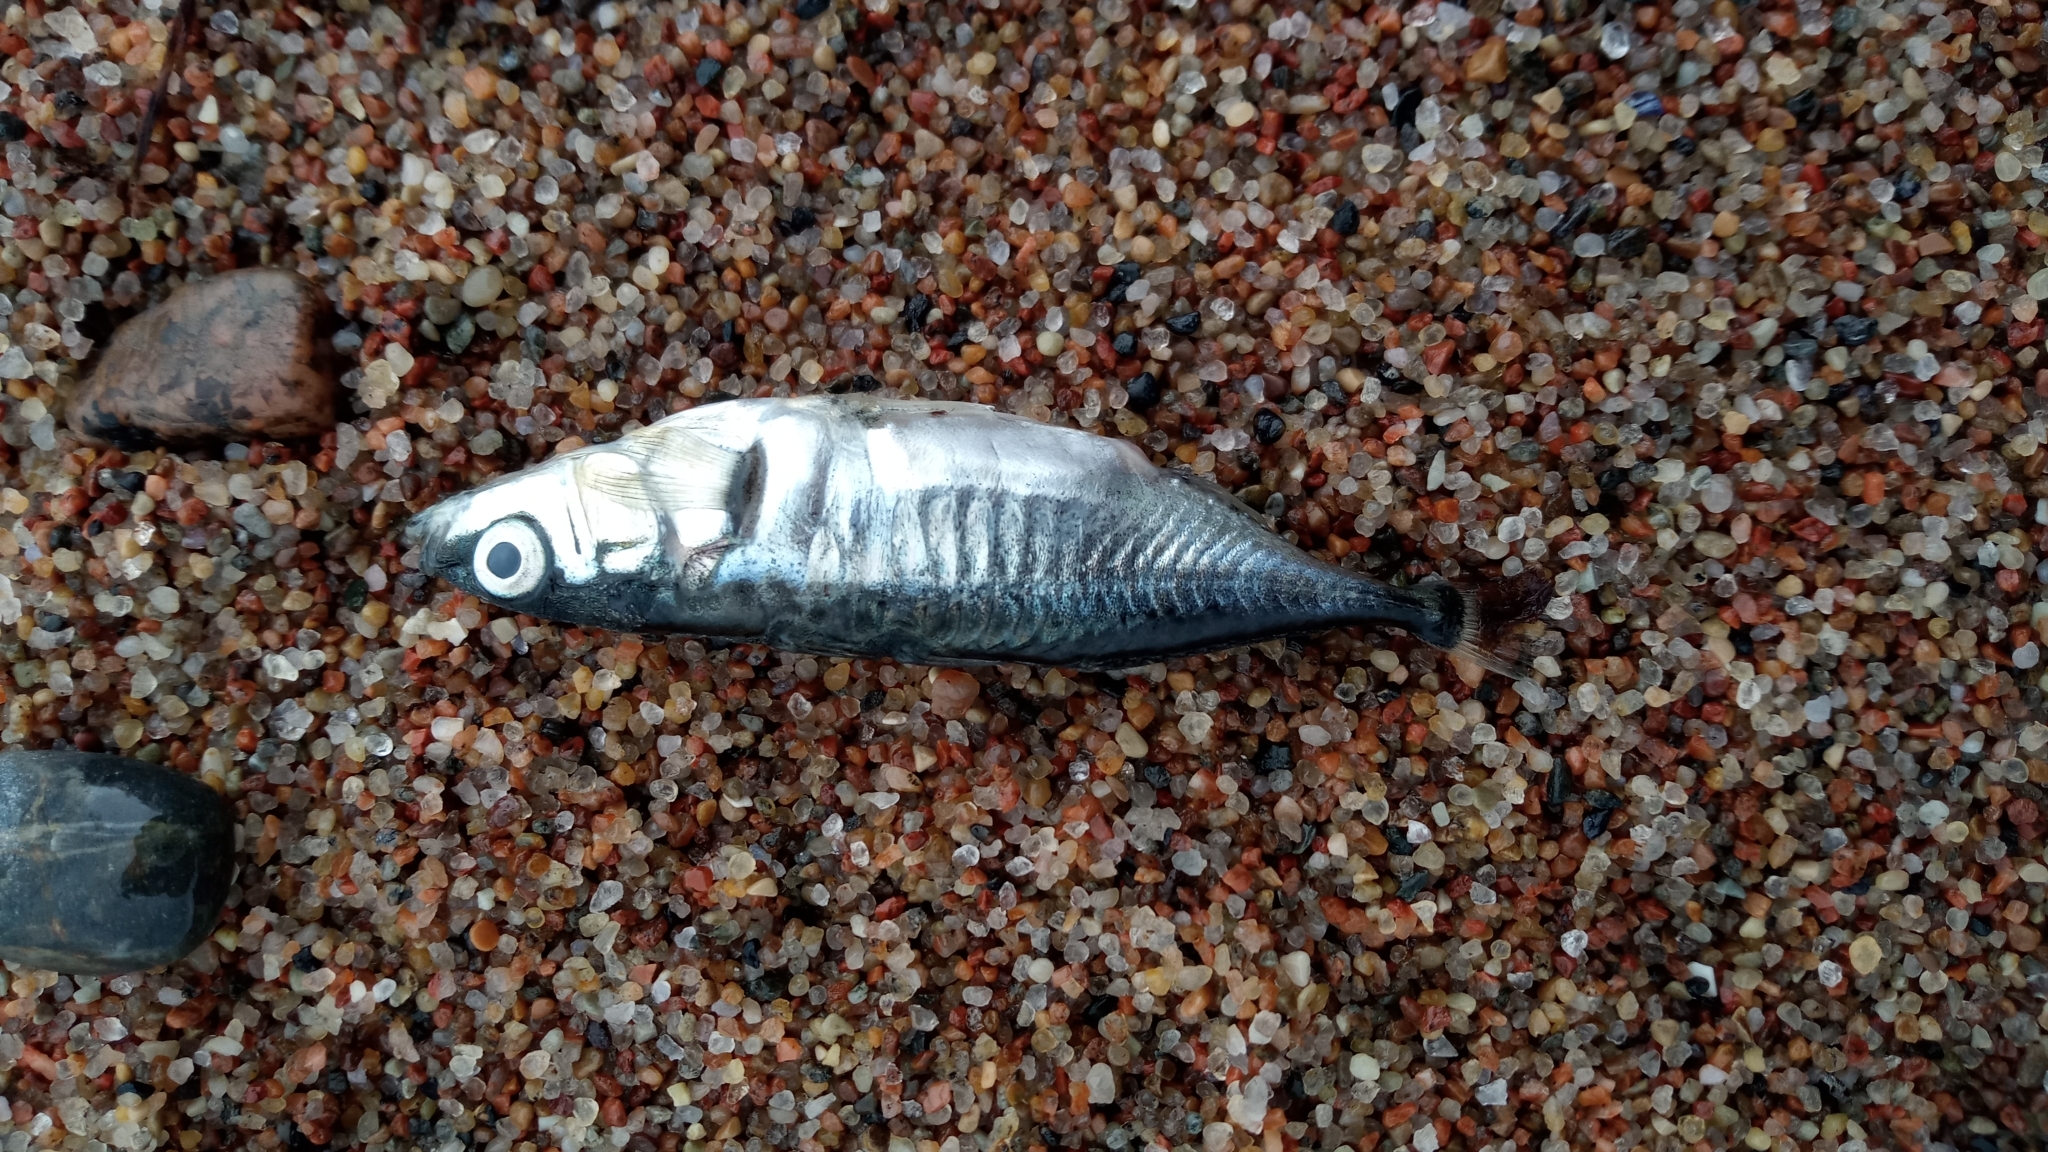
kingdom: Animalia
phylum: Chordata
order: Gasterosteiformes
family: Gasterosteidae
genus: Gasterosteus
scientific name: Gasterosteus aculeatus
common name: Three-spined stickleback
